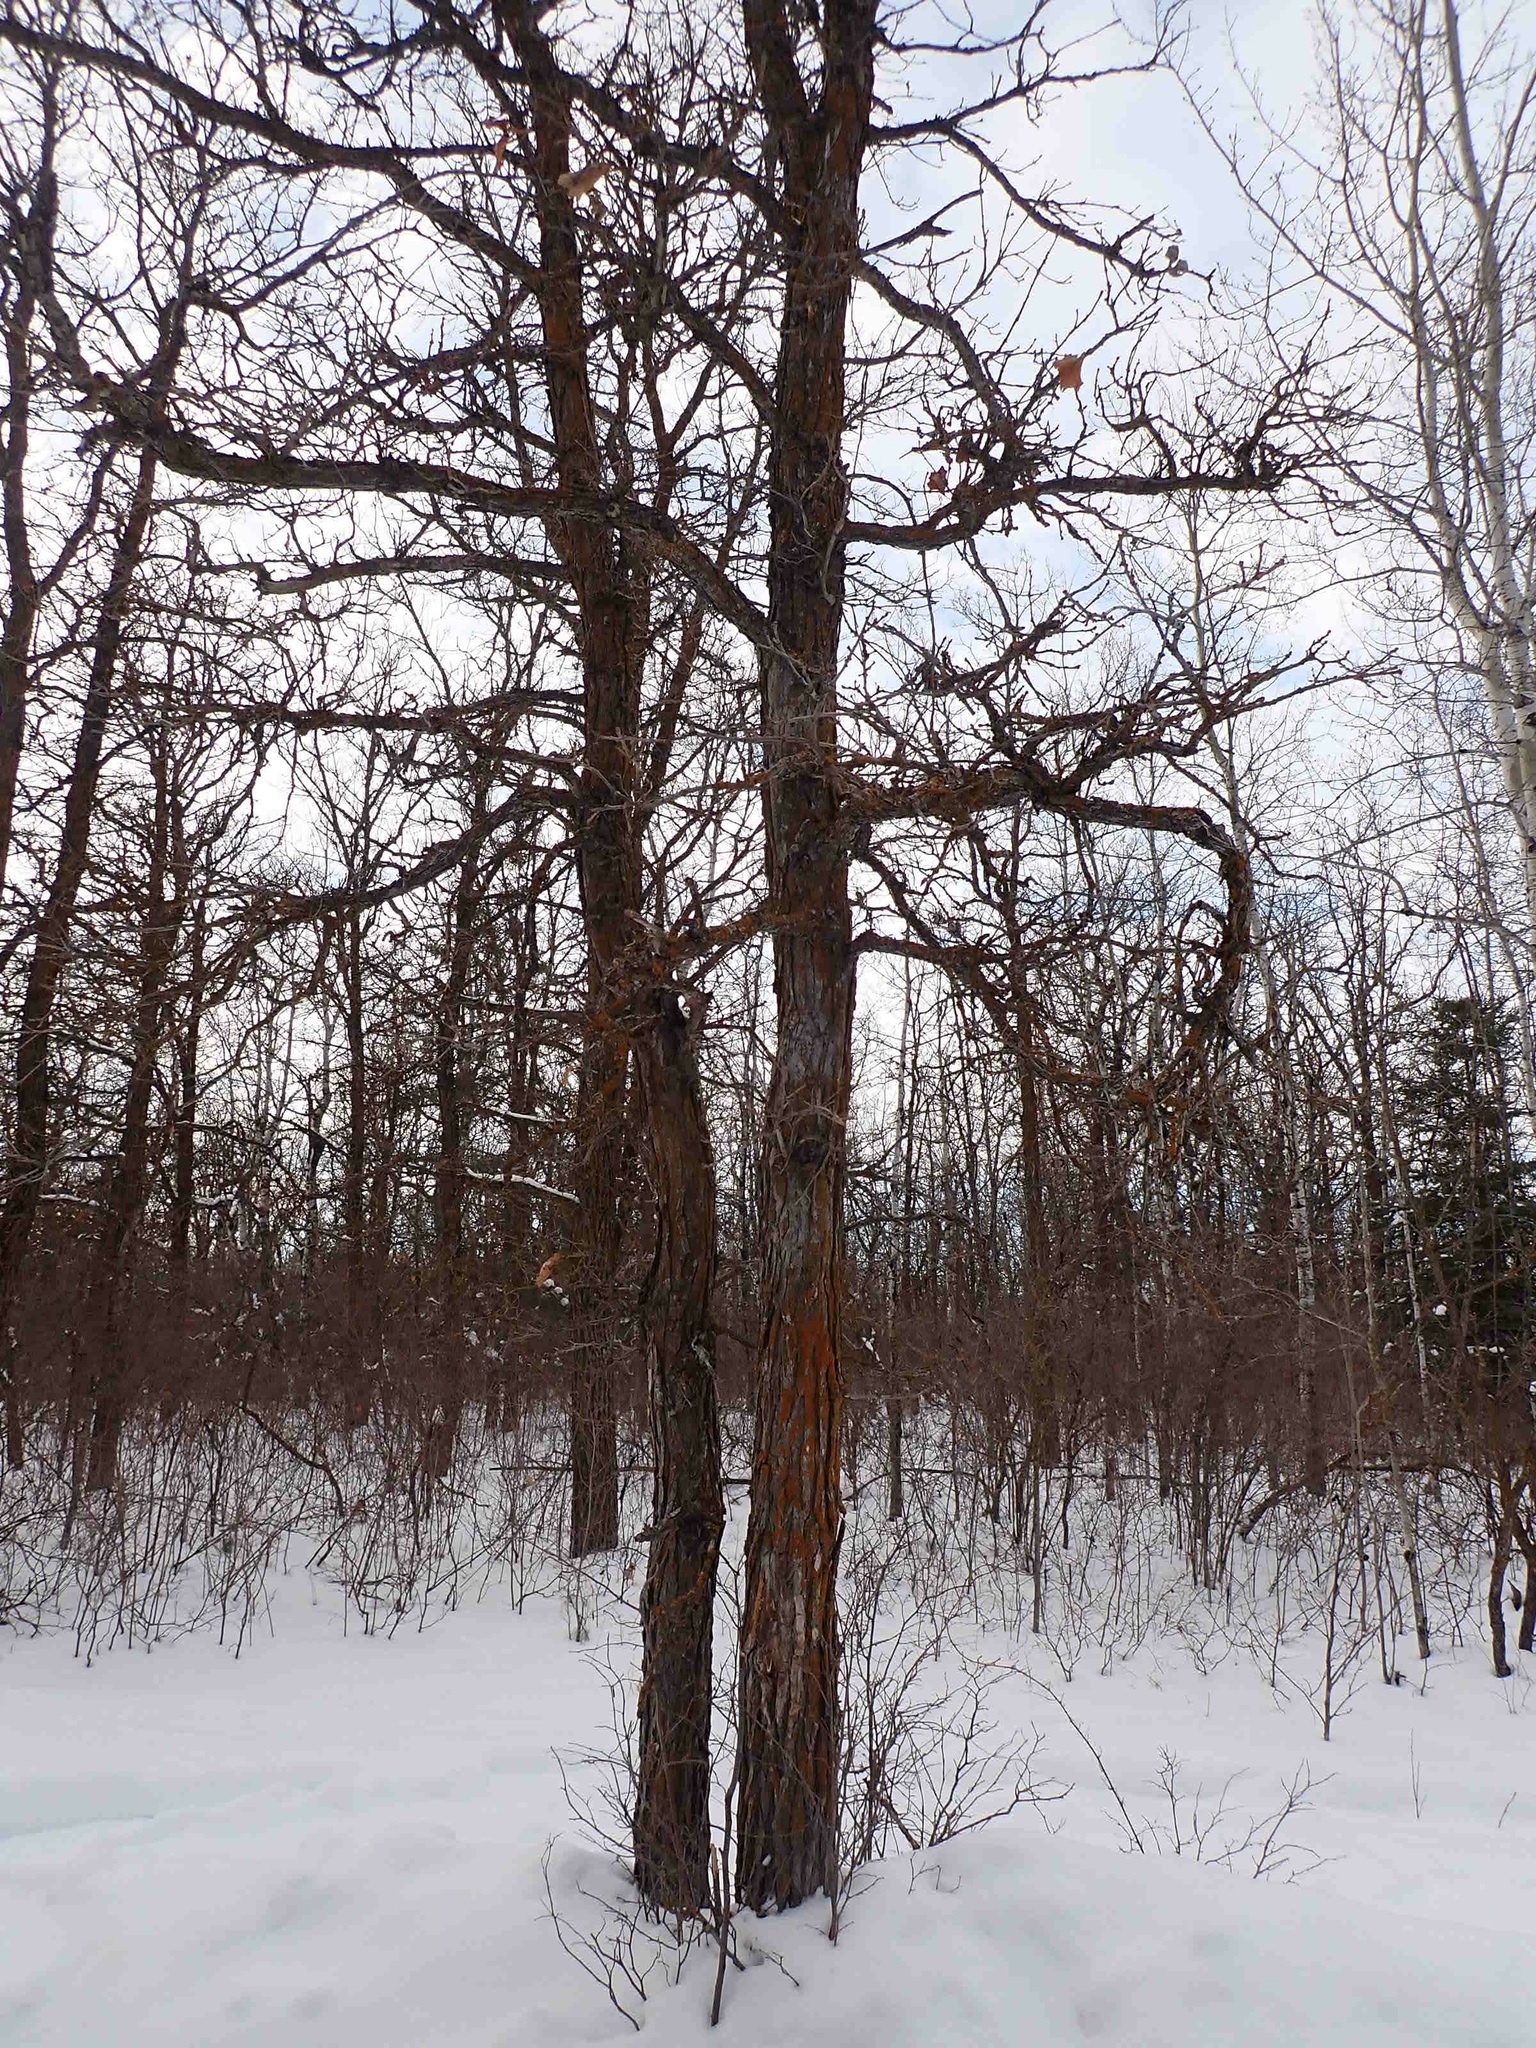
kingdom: Plantae
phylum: Tracheophyta
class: Magnoliopsida
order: Fagales
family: Fagaceae
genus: Quercus
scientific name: Quercus macrocarpa
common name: Bur oak
